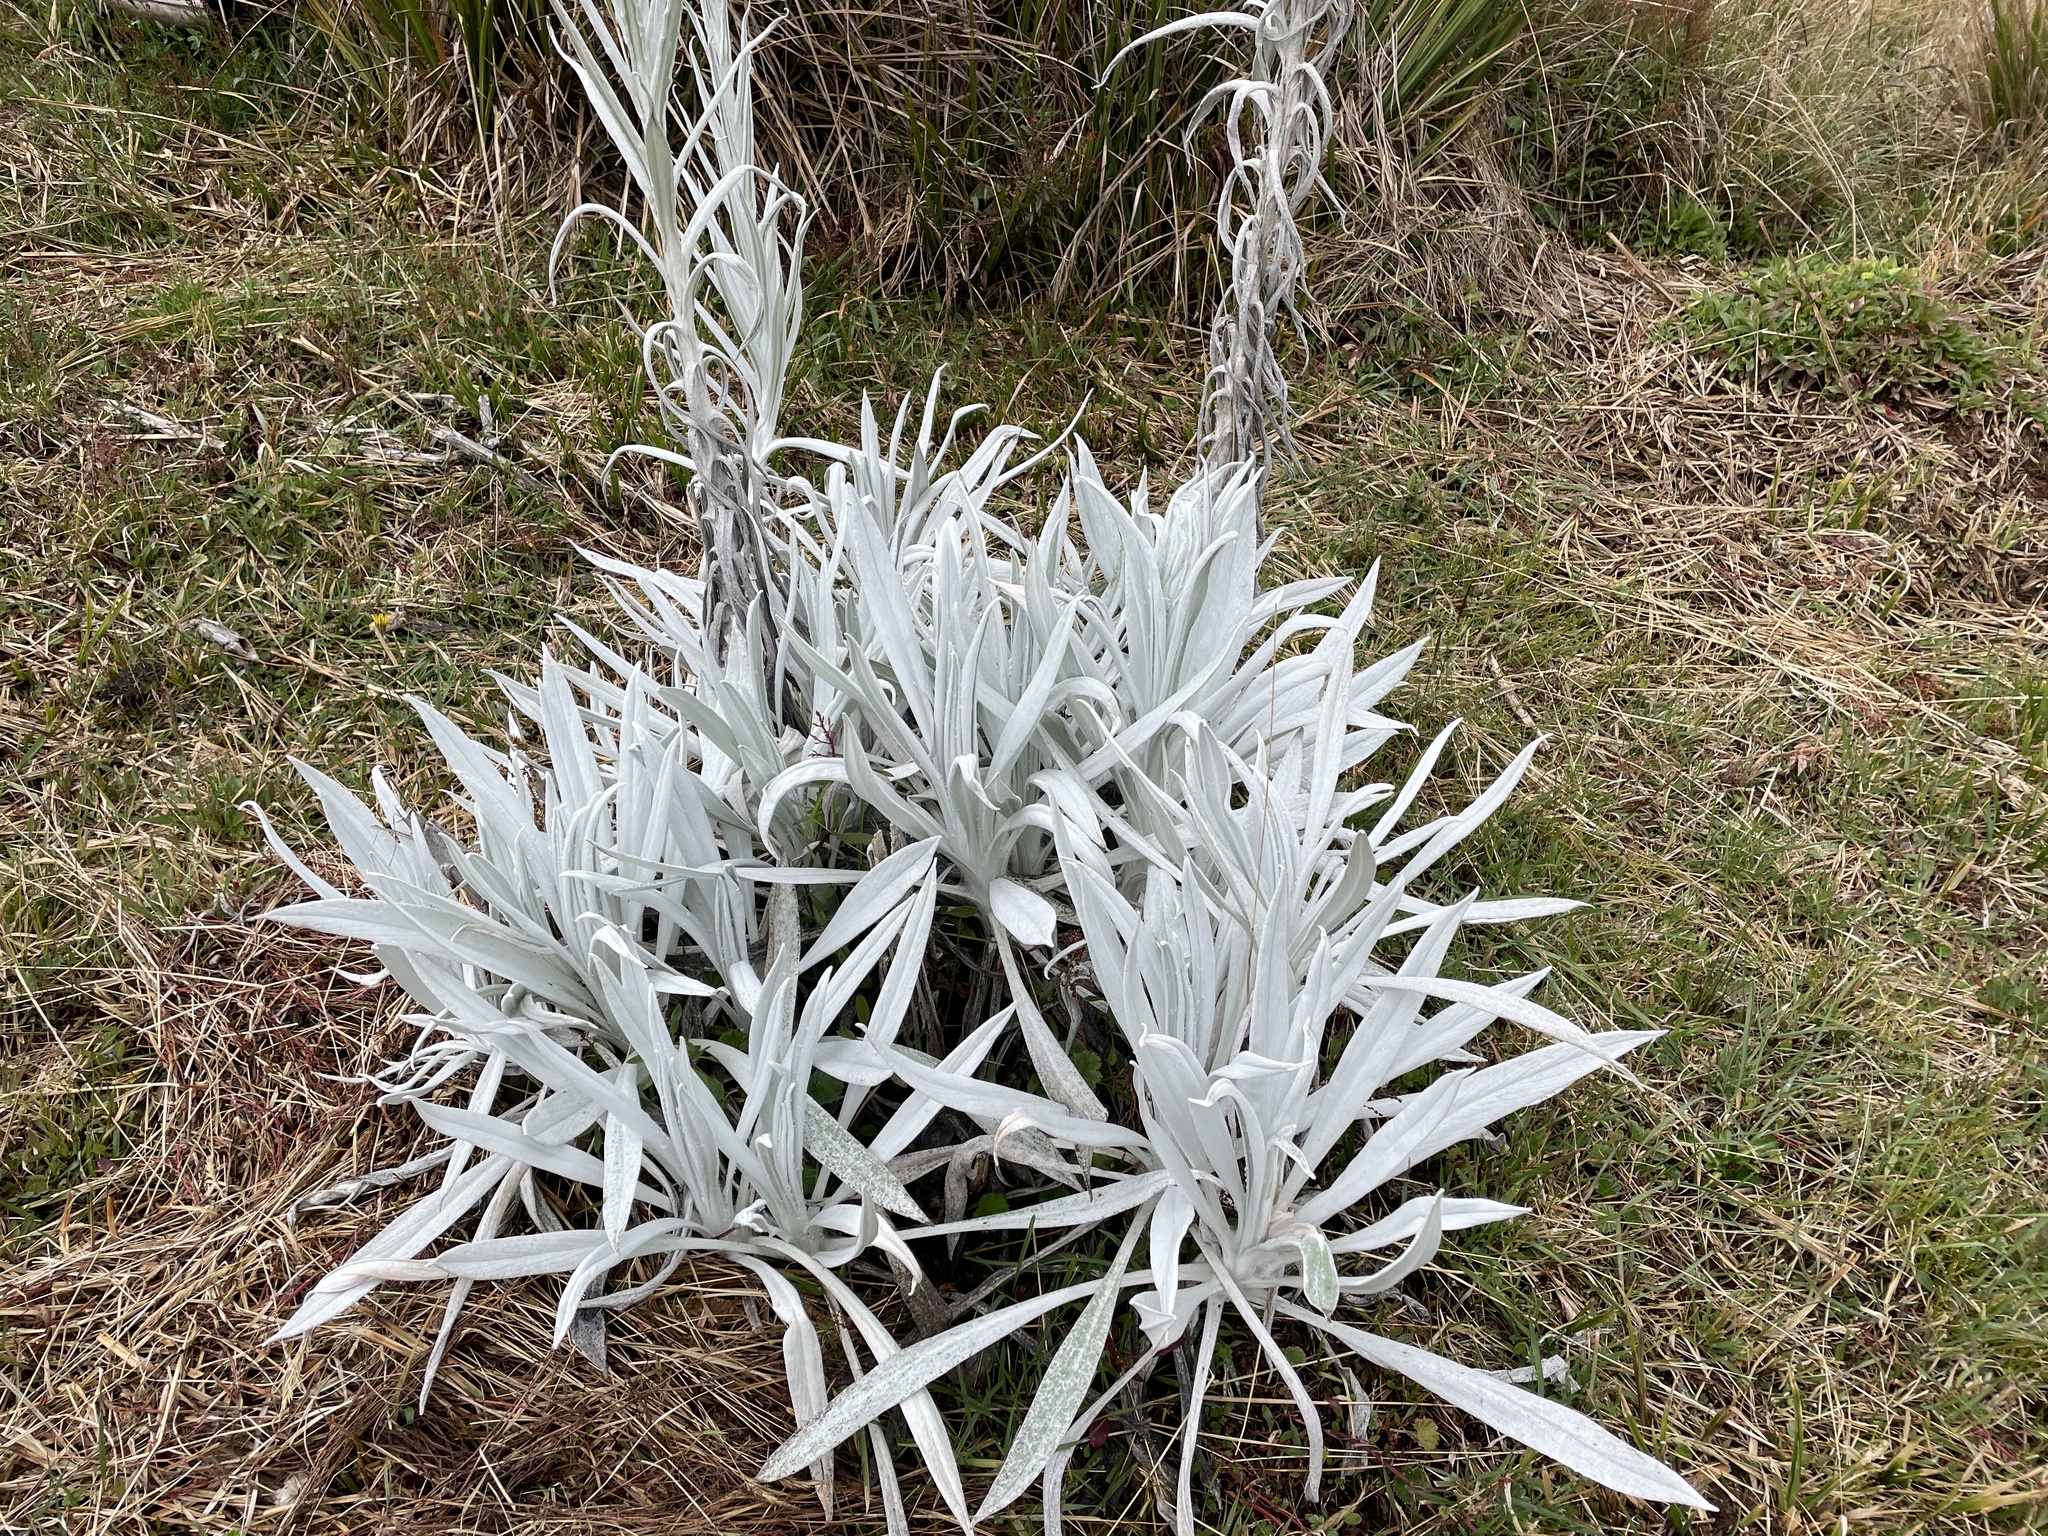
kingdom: Plantae
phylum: Tracheophyta
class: Magnoliopsida
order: Asterales
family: Asteraceae
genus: Senecio
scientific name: Senecio niveoaureus
